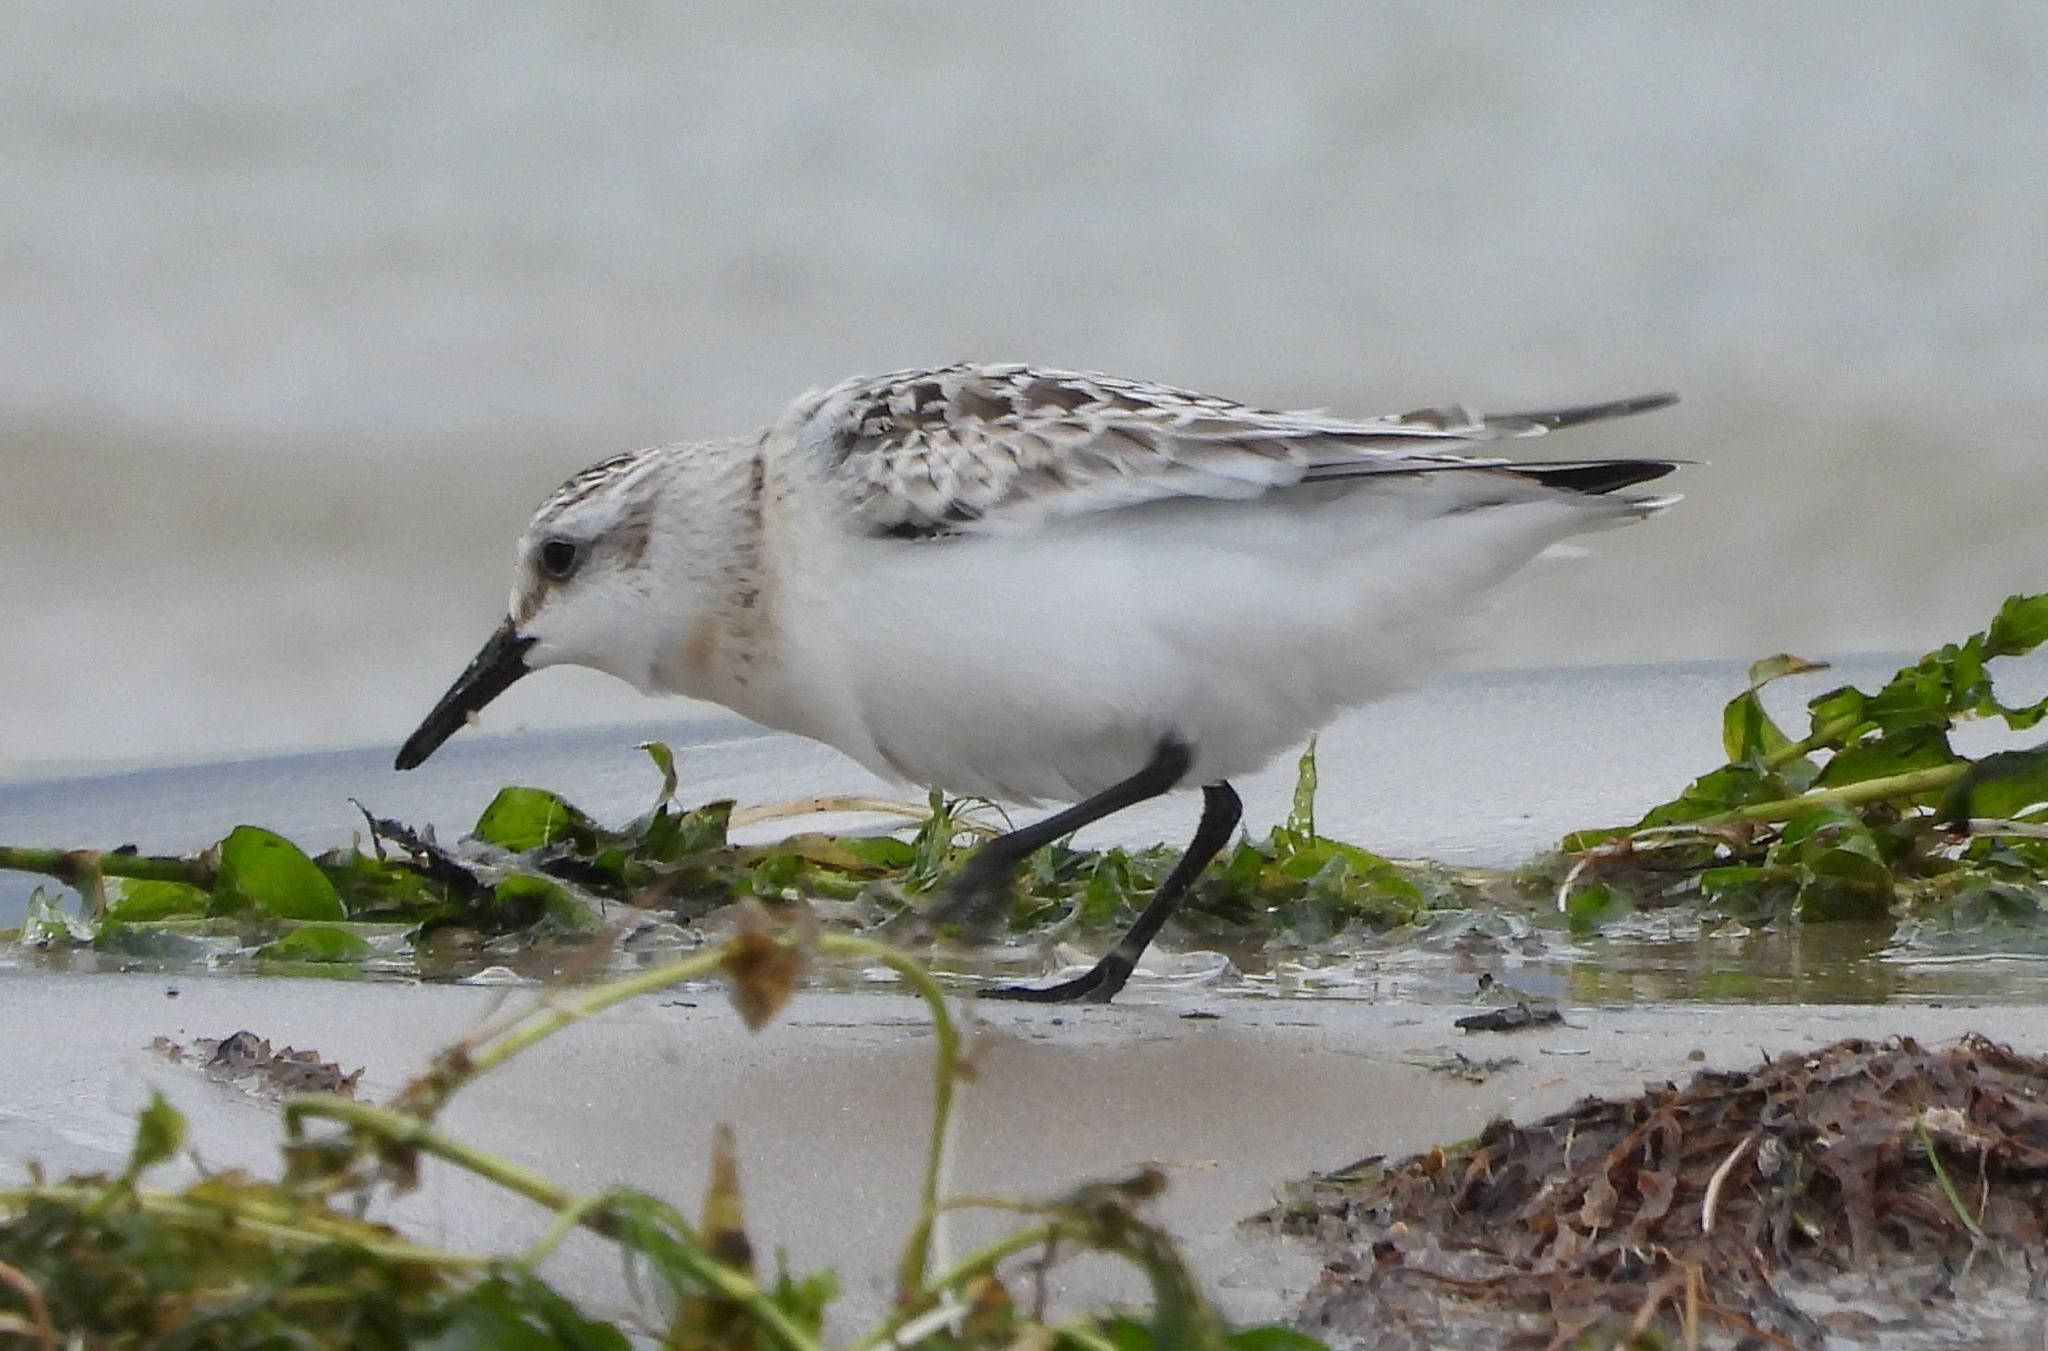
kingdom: Animalia
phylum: Chordata
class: Aves
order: Charadriiformes
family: Scolopacidae
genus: Calidris
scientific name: Calidris alba
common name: Sanderling
